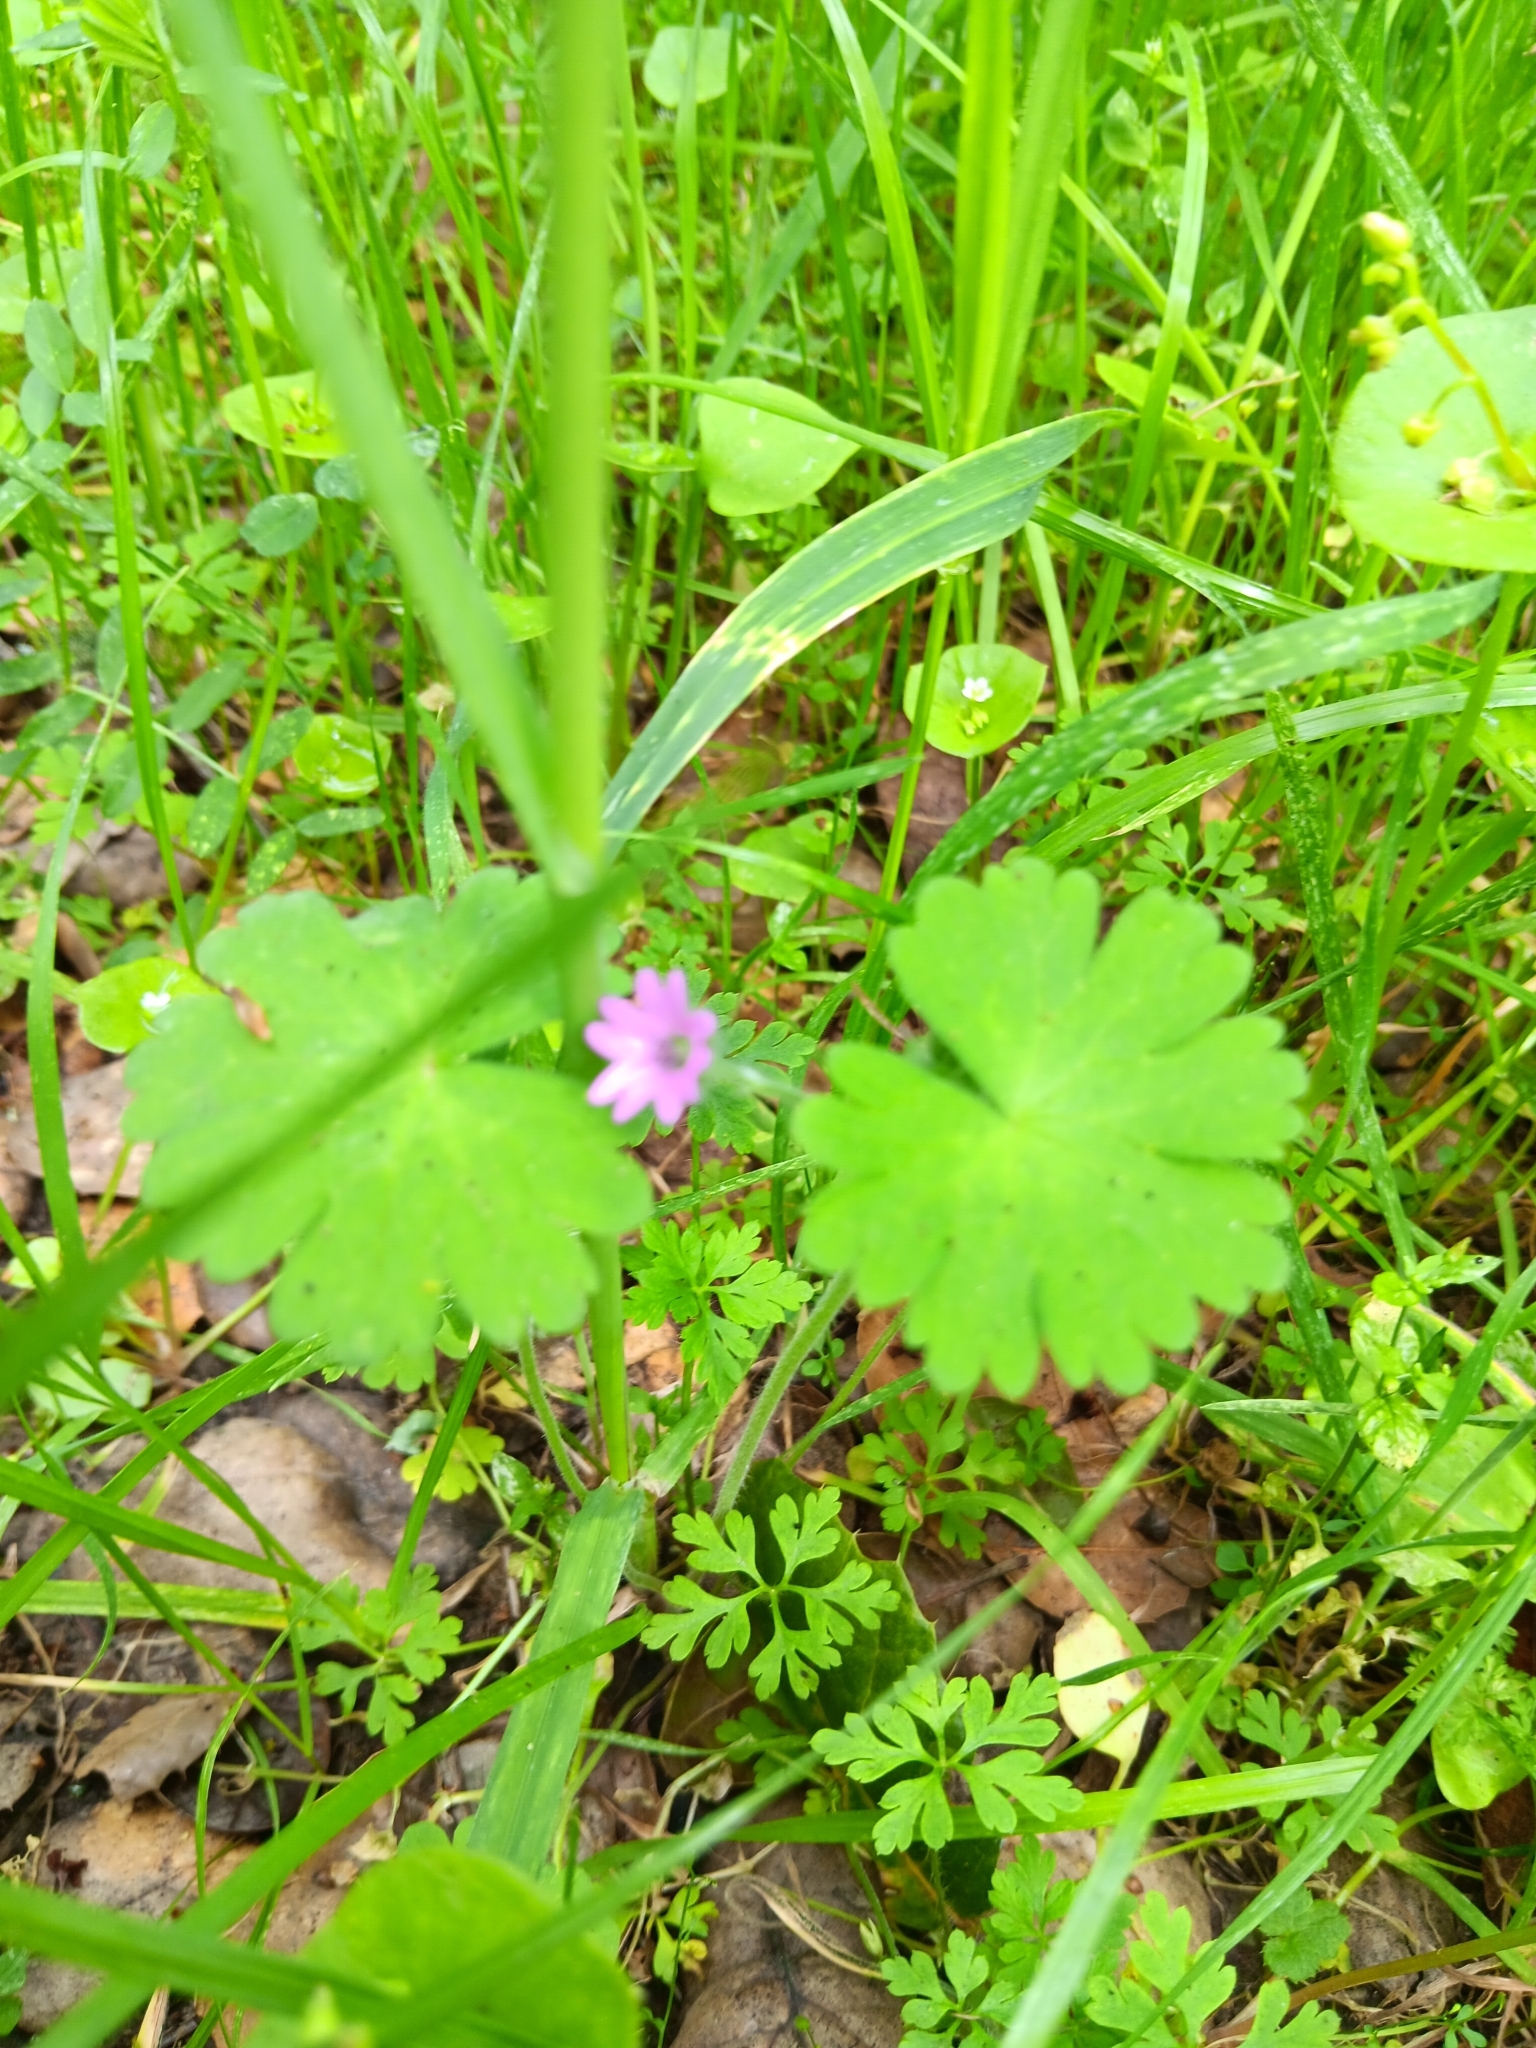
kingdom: Plantae
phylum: Tracheophyta
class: Magnoliopsida
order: Geraniales
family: Geraniaceae
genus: Geranium
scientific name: Geranium molle
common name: Dove's-foot crane's-bill
